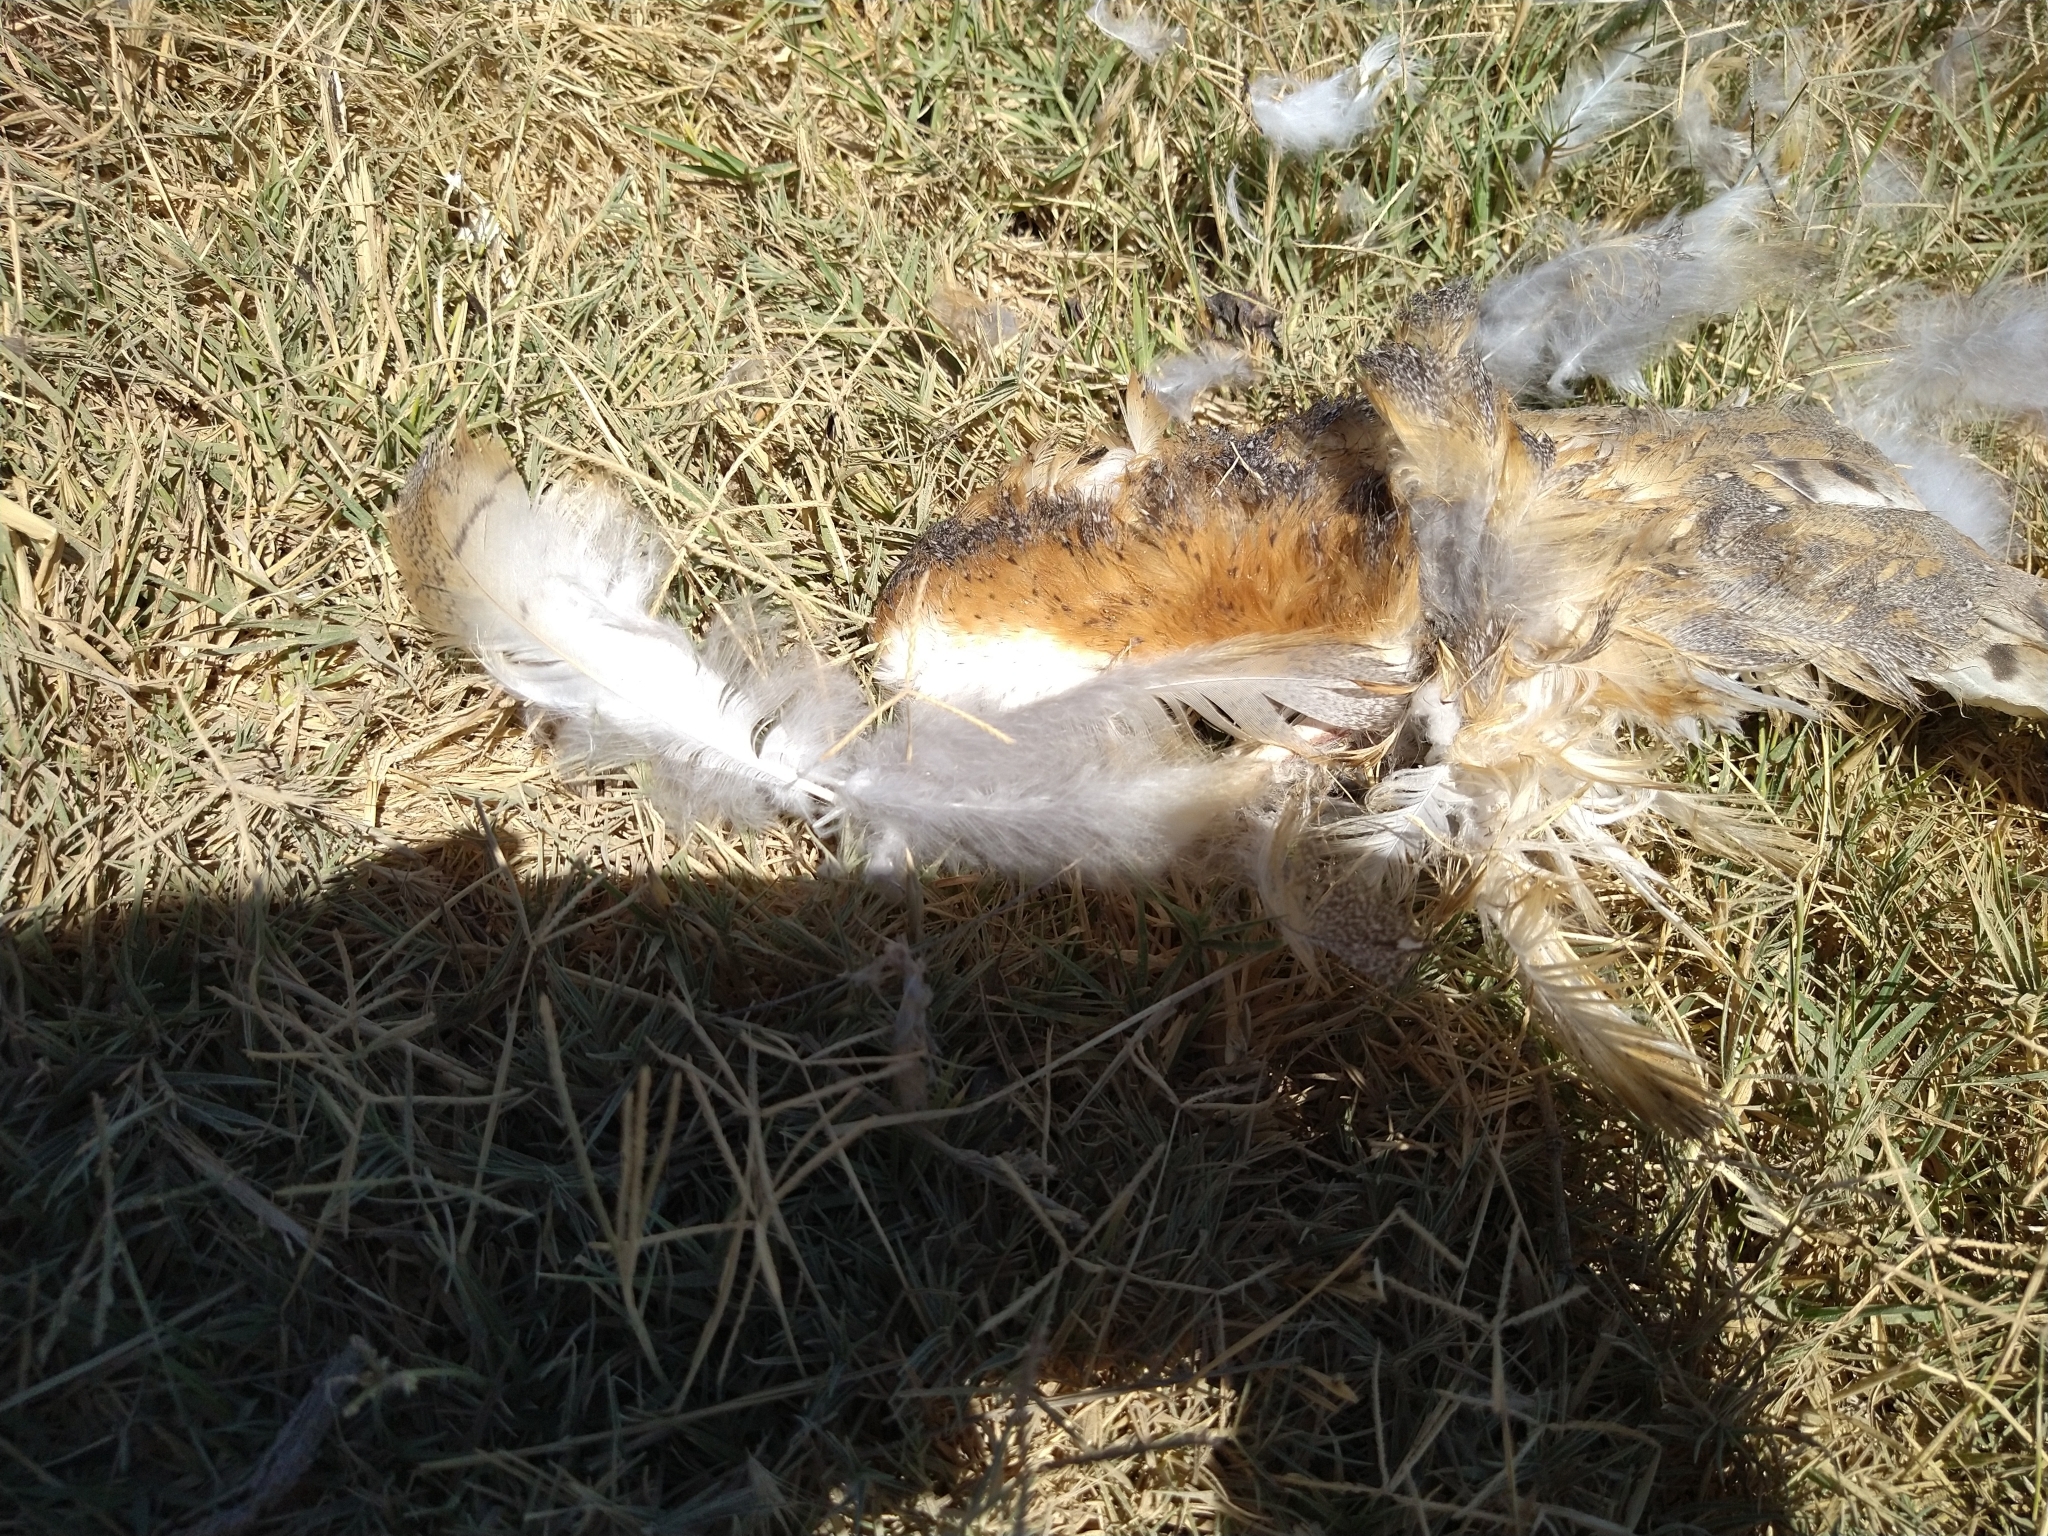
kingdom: Animalia
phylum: Chordata
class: Aves
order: Strigiformes
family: Tytonidae
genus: Tyto
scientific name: Tyto alba
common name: Barn owl
